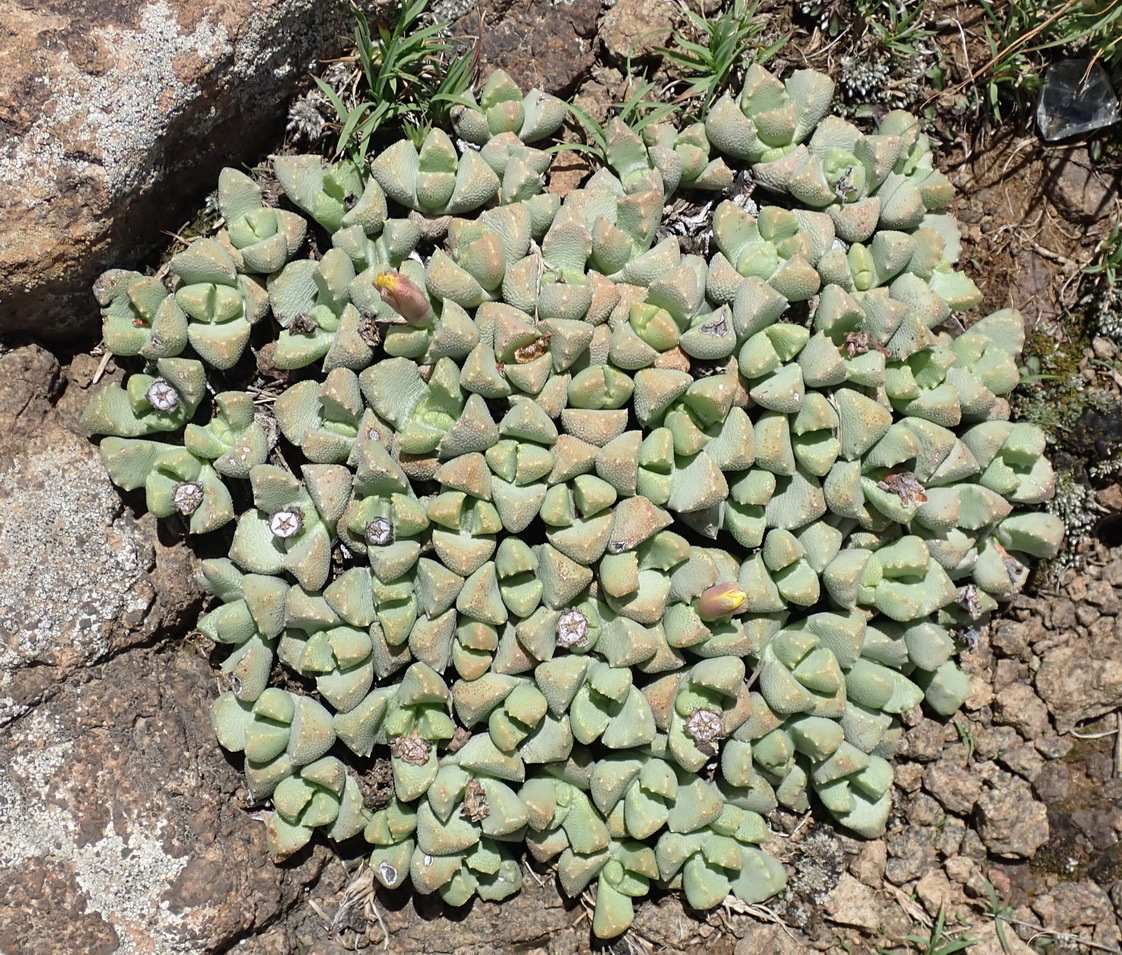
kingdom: Plantae
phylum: Tracheophyta
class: Magnoliopsida
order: Caryophyllales
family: Aizoaceae
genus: Stomatium
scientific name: Stomatium bolusiae
